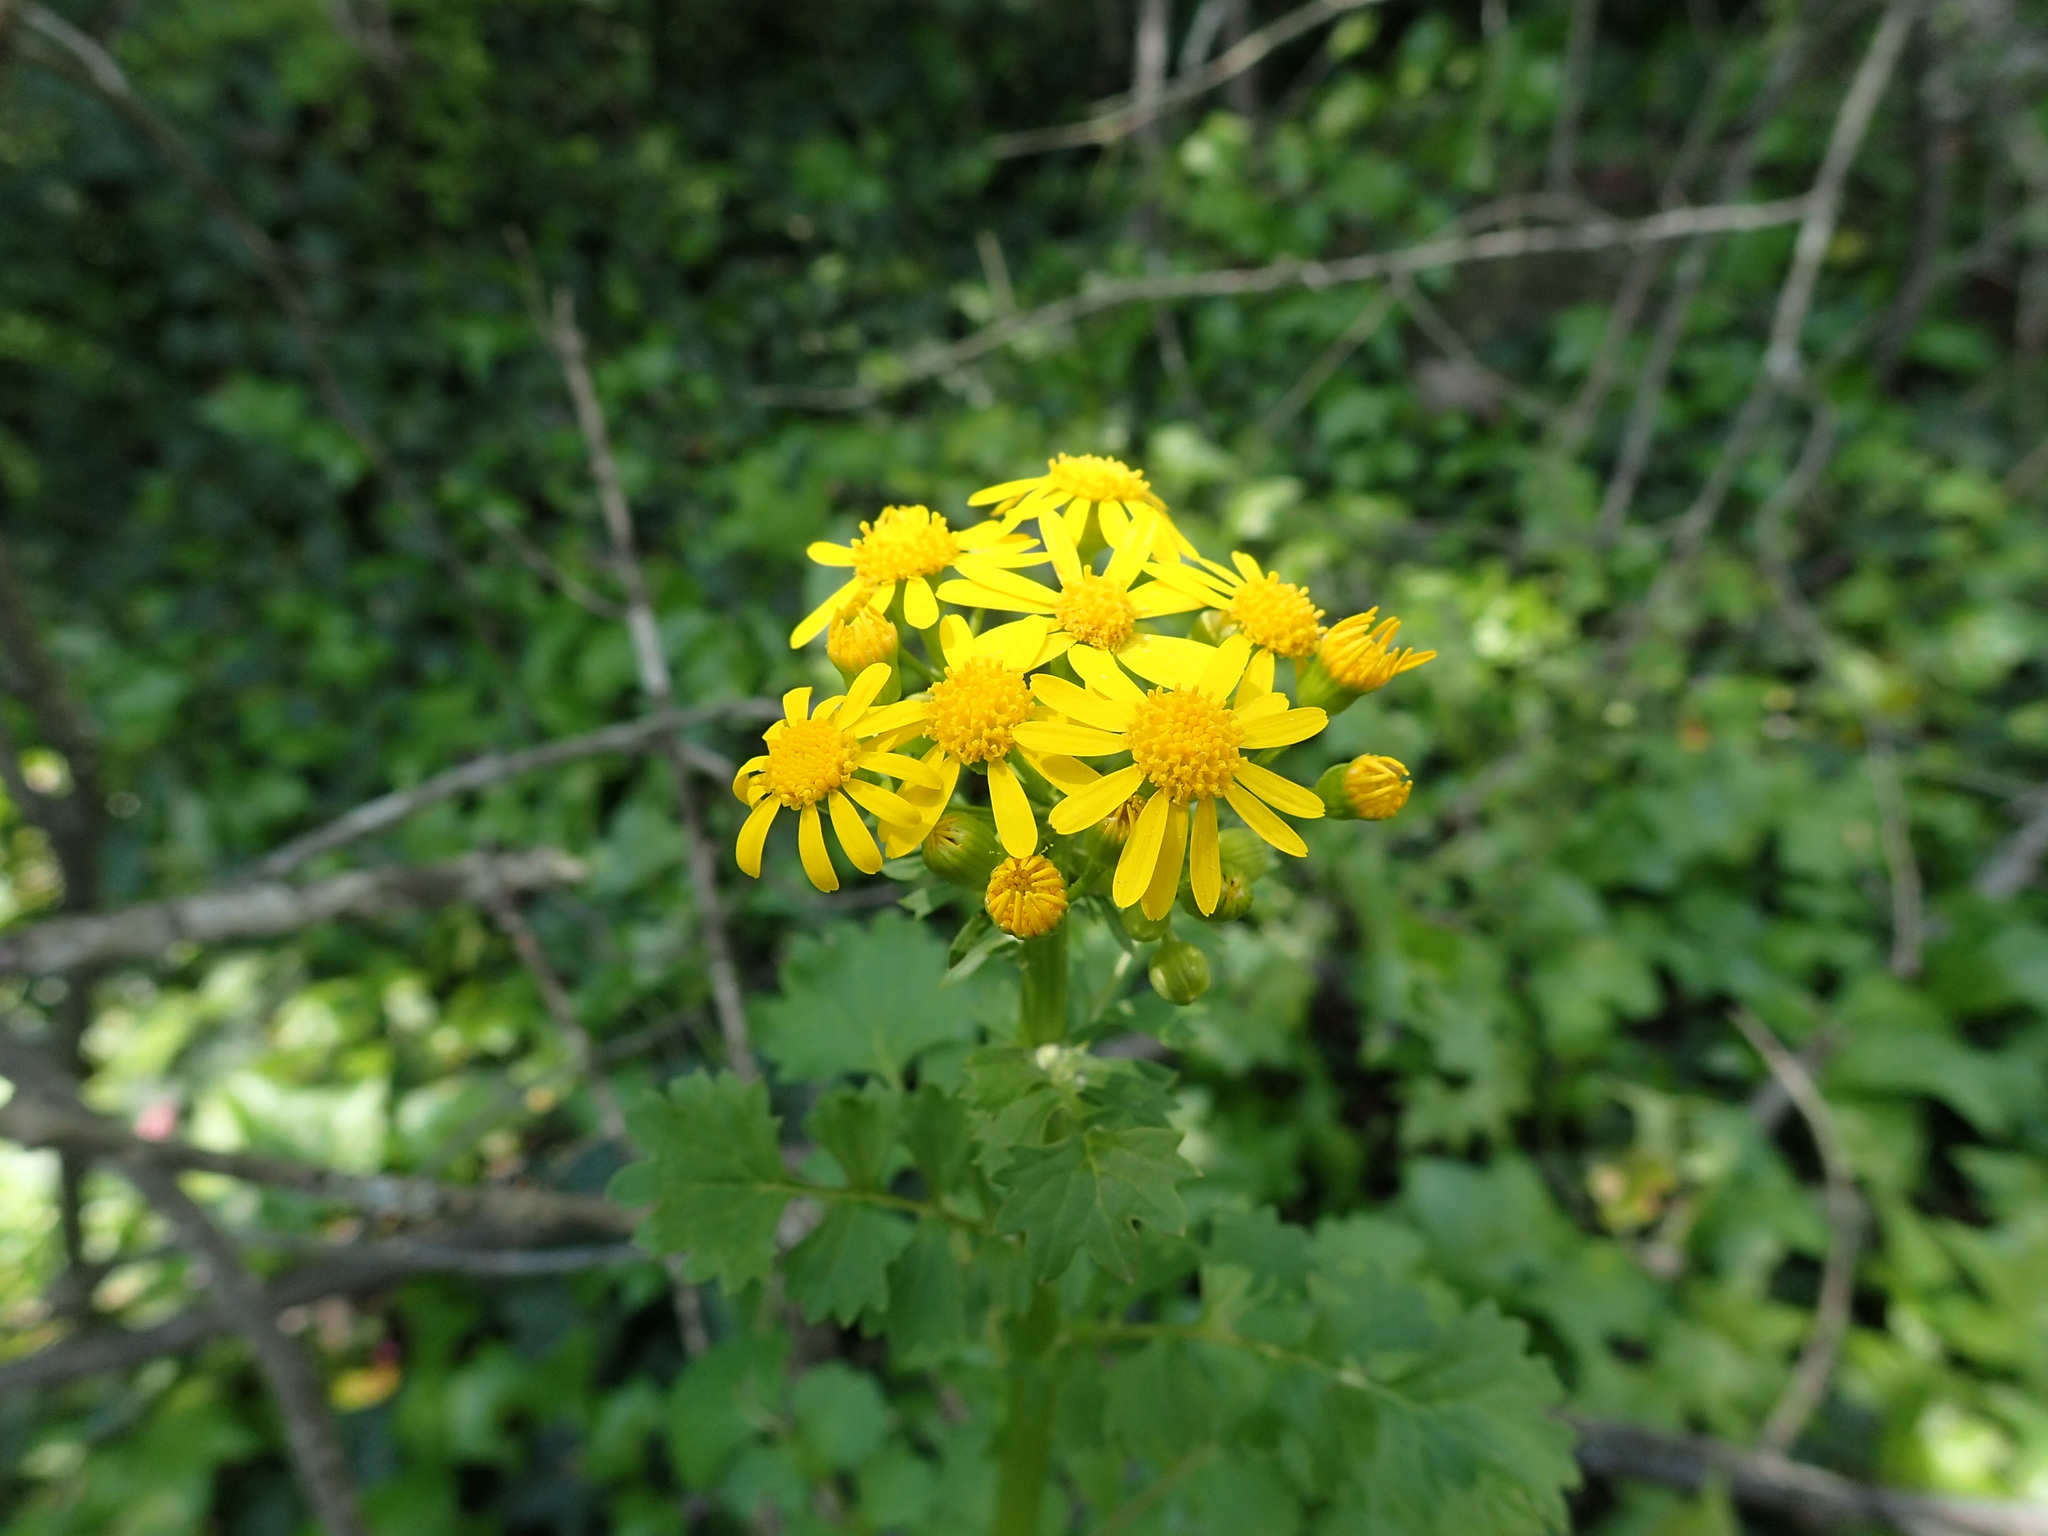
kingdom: Plantae
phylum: Tracheophyta
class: Magnoliopsida
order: Asterales
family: Asteraceae
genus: Packera
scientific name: Packera glabella
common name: Butterweed
